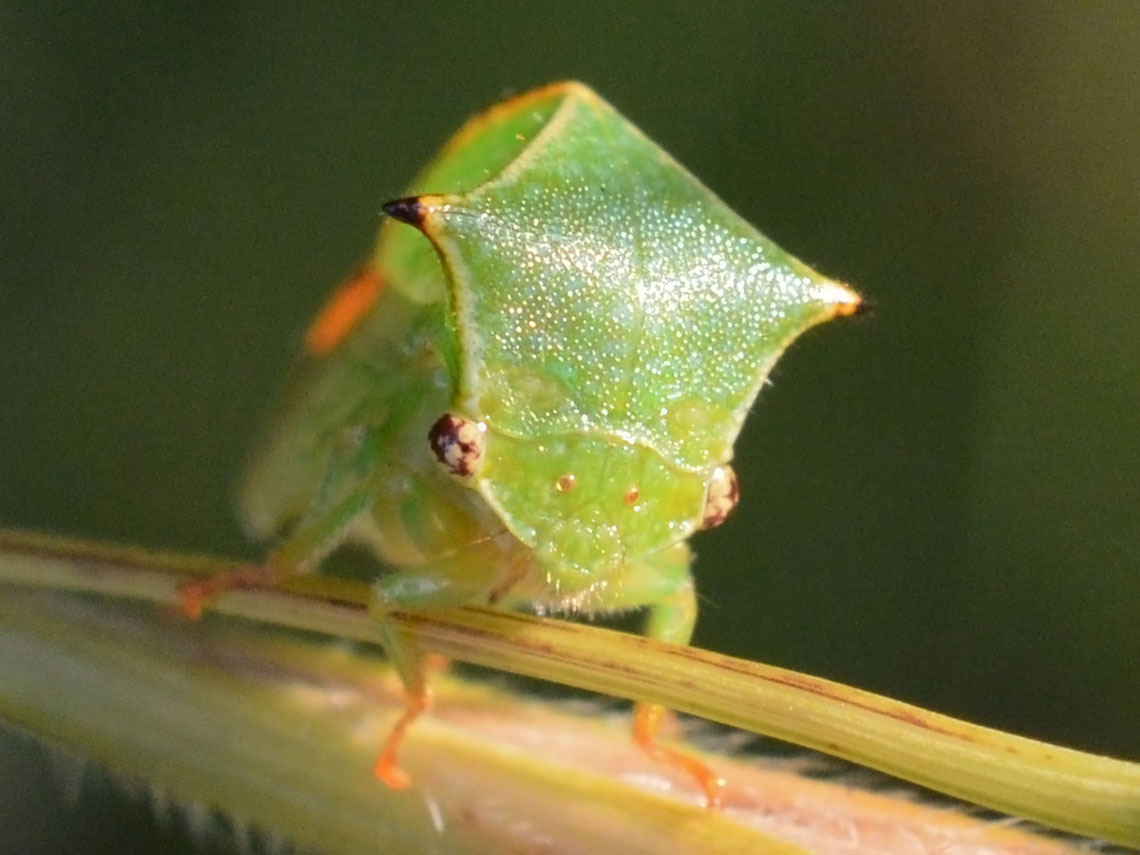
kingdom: Animalia
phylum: Arthropoda
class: Insecta
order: Hemiptera
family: Membracidae
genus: Stictocephala
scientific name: Stictocephala bisonia
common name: American buffalo treehopper
